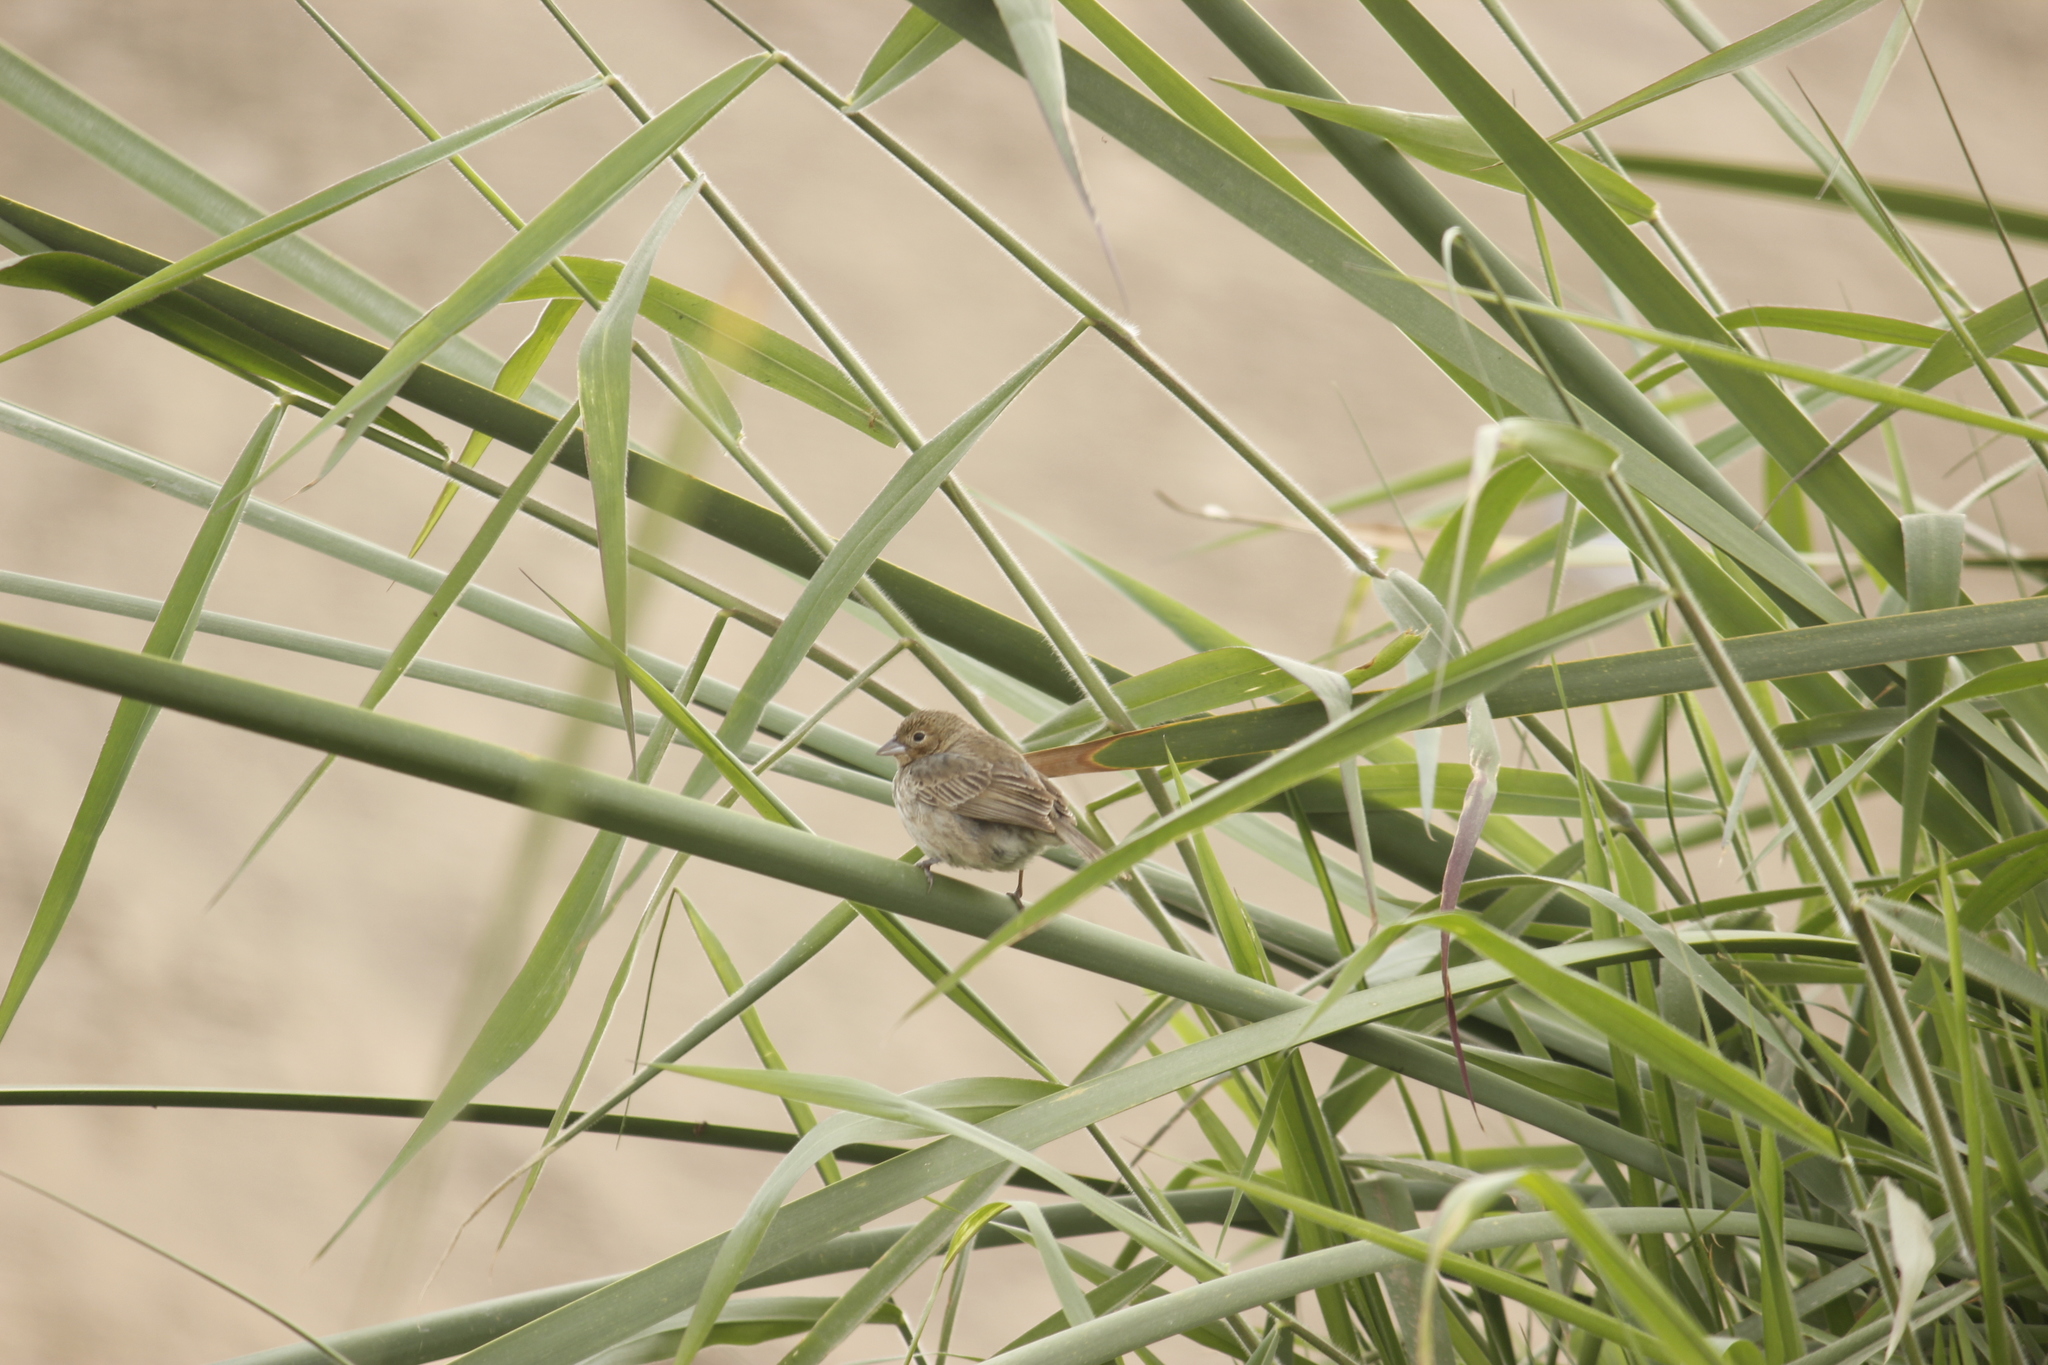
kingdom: Animalia
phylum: Chordata
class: Aves
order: Passeriformes
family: Thraupidae
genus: Volatinia
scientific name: Volatinia jacarina
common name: Blue-black grassquit
